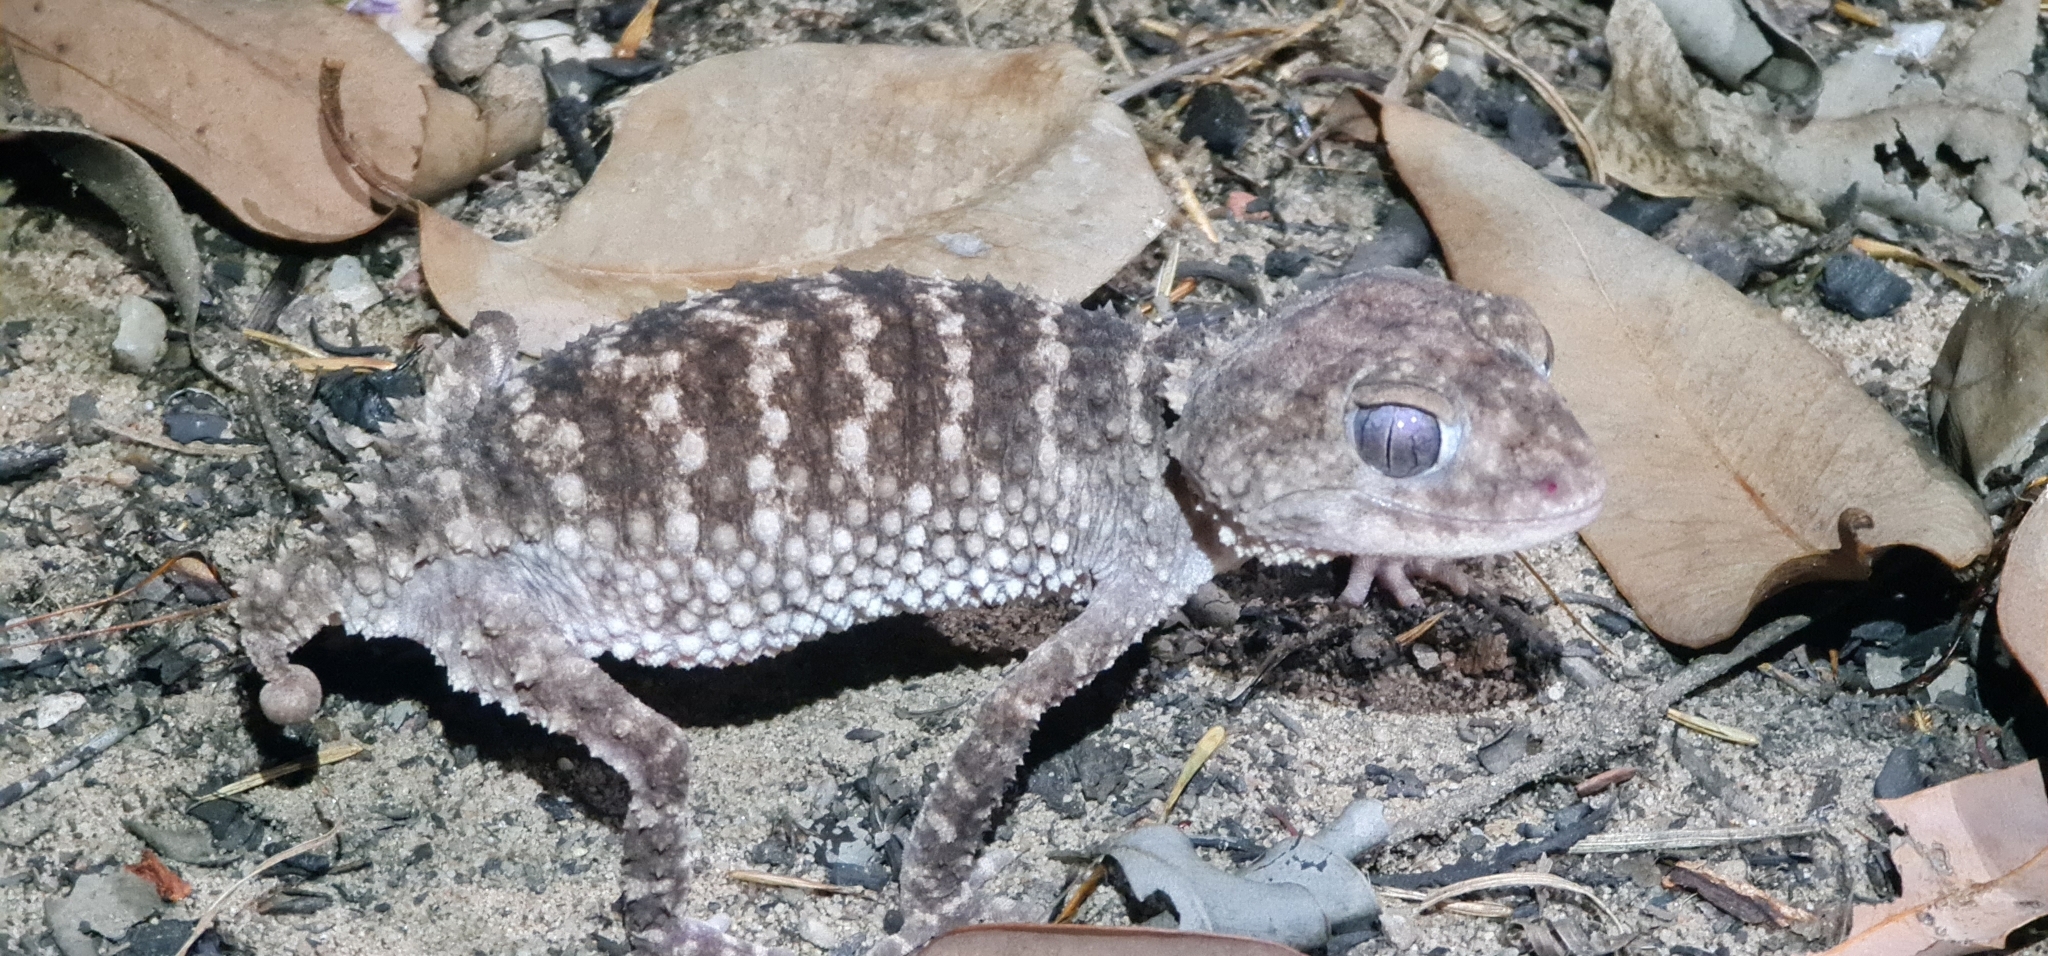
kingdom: Animalia
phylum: Chordata
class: Squamata
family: Carphodactylidae
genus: Nephrurus
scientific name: Nephrurus sheai
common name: Kimberley rough knob-tail
